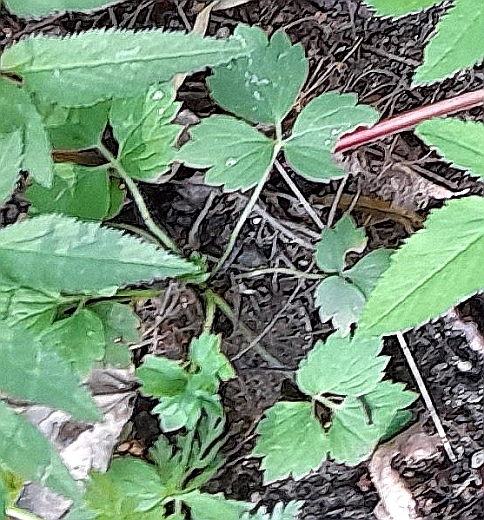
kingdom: Plantae
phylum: Tracheophyta
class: Magnoliopsida
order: Ranunculales
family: Ranunculaceae
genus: Ranunculus
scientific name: Ranunculus repens
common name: Creeping buttercup
